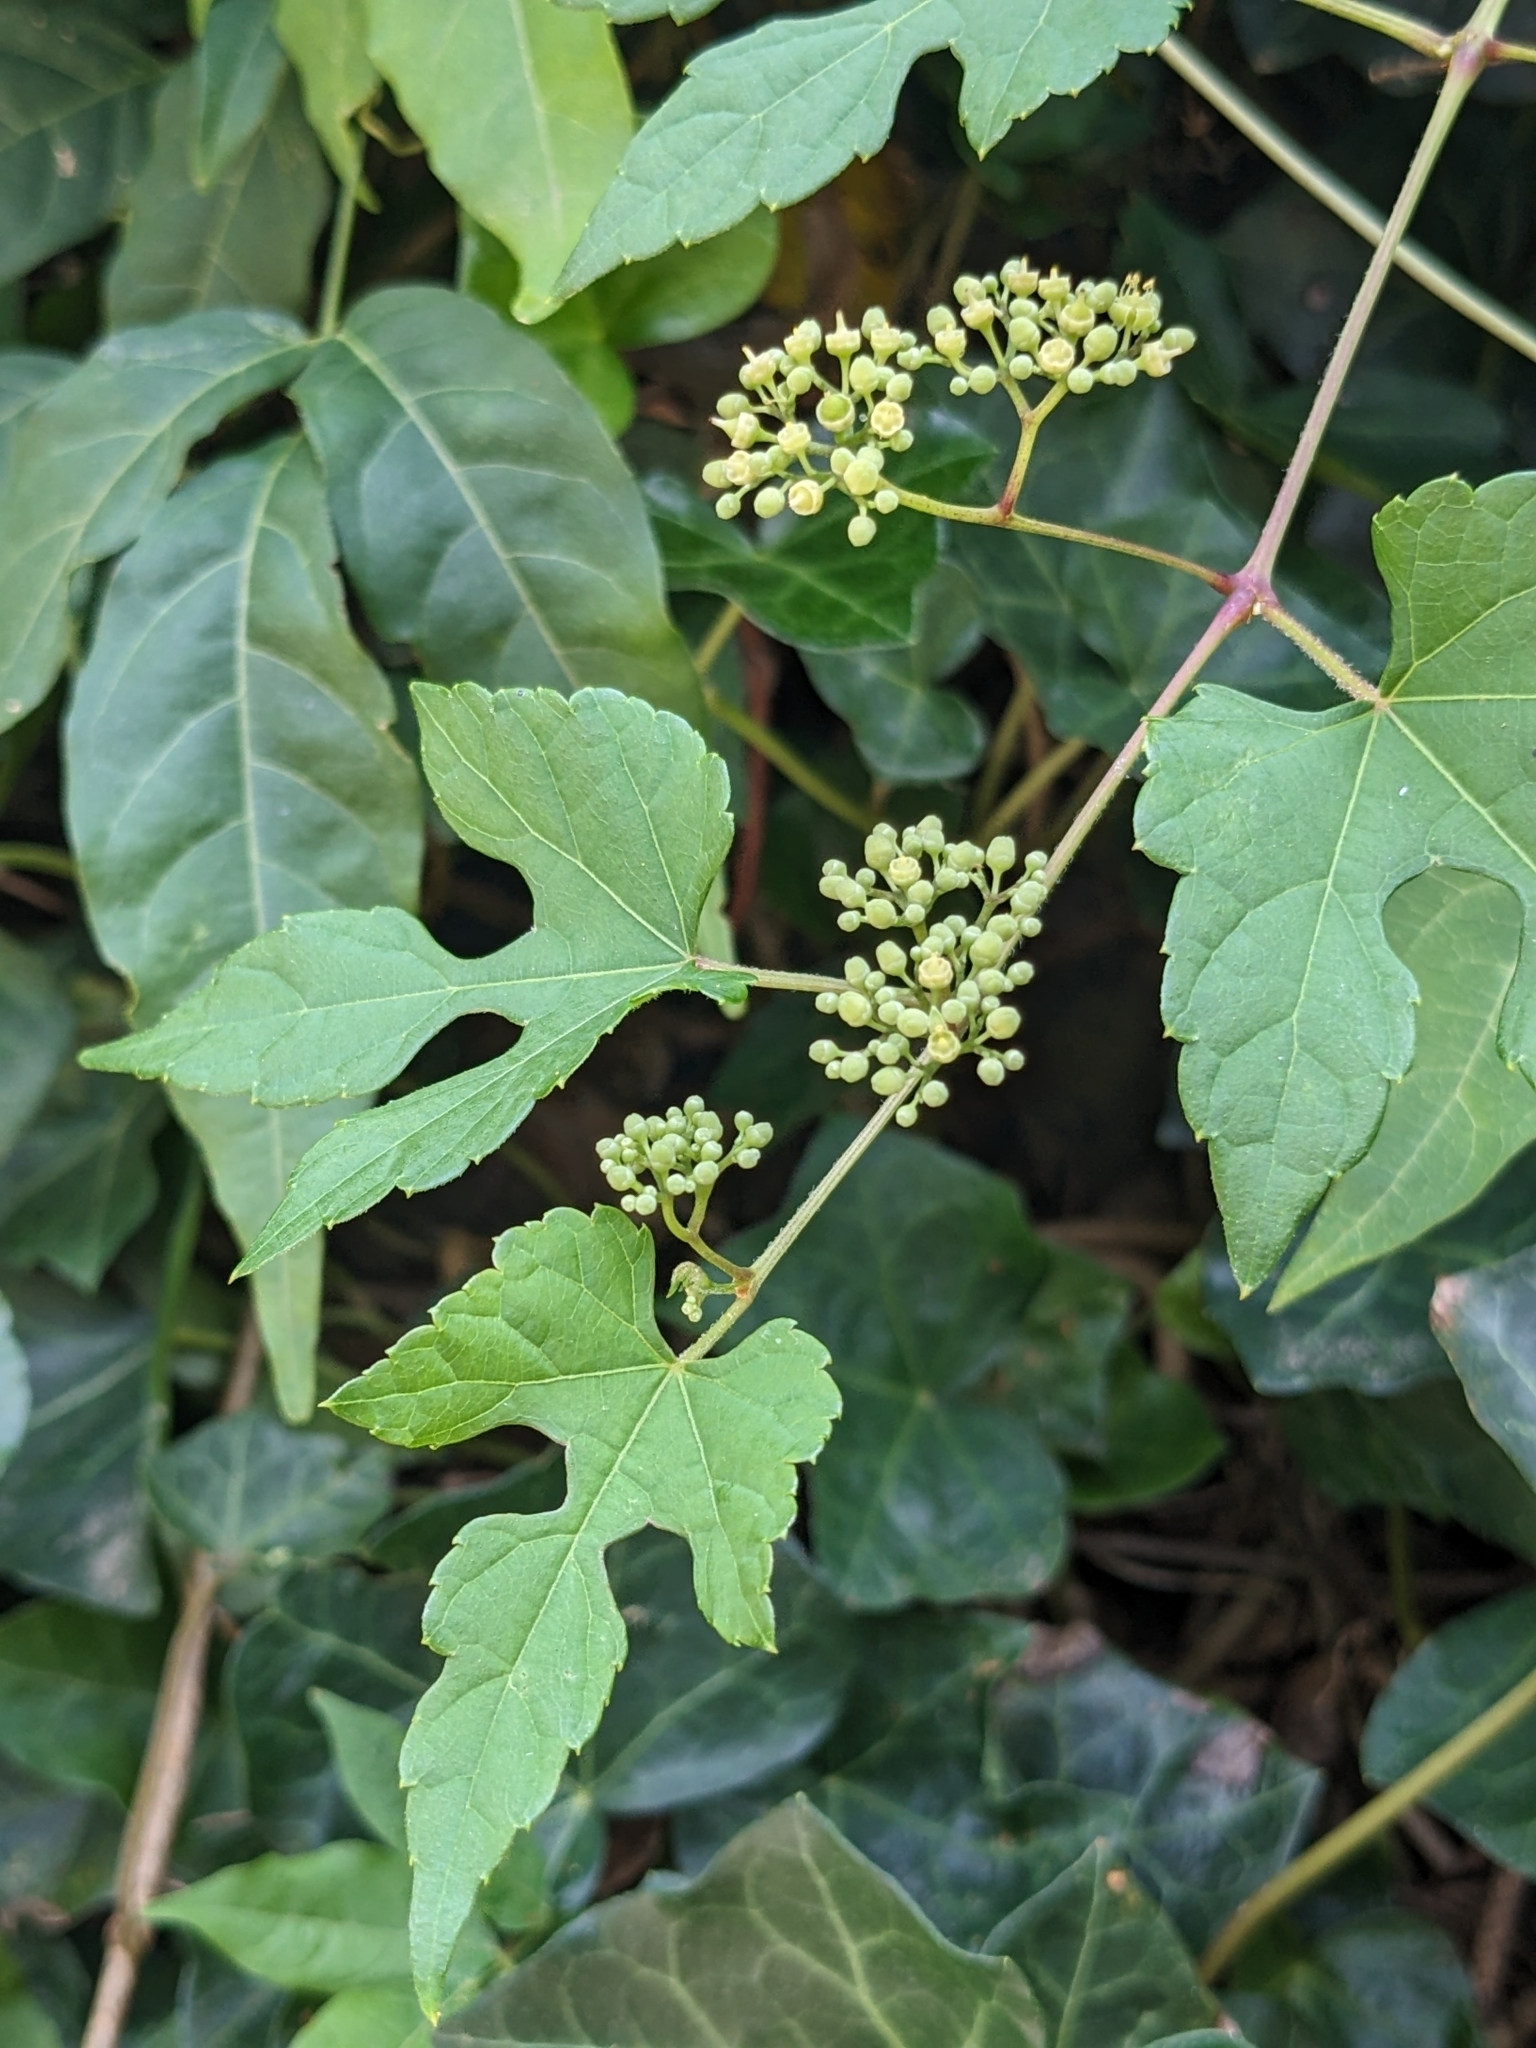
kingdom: Plantae
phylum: Tracheophyta
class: Magnoliopsida
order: Vitales
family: Vitaceae
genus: Ampelopsis
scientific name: Ampelopsis glandulosa
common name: Amur peppervine
